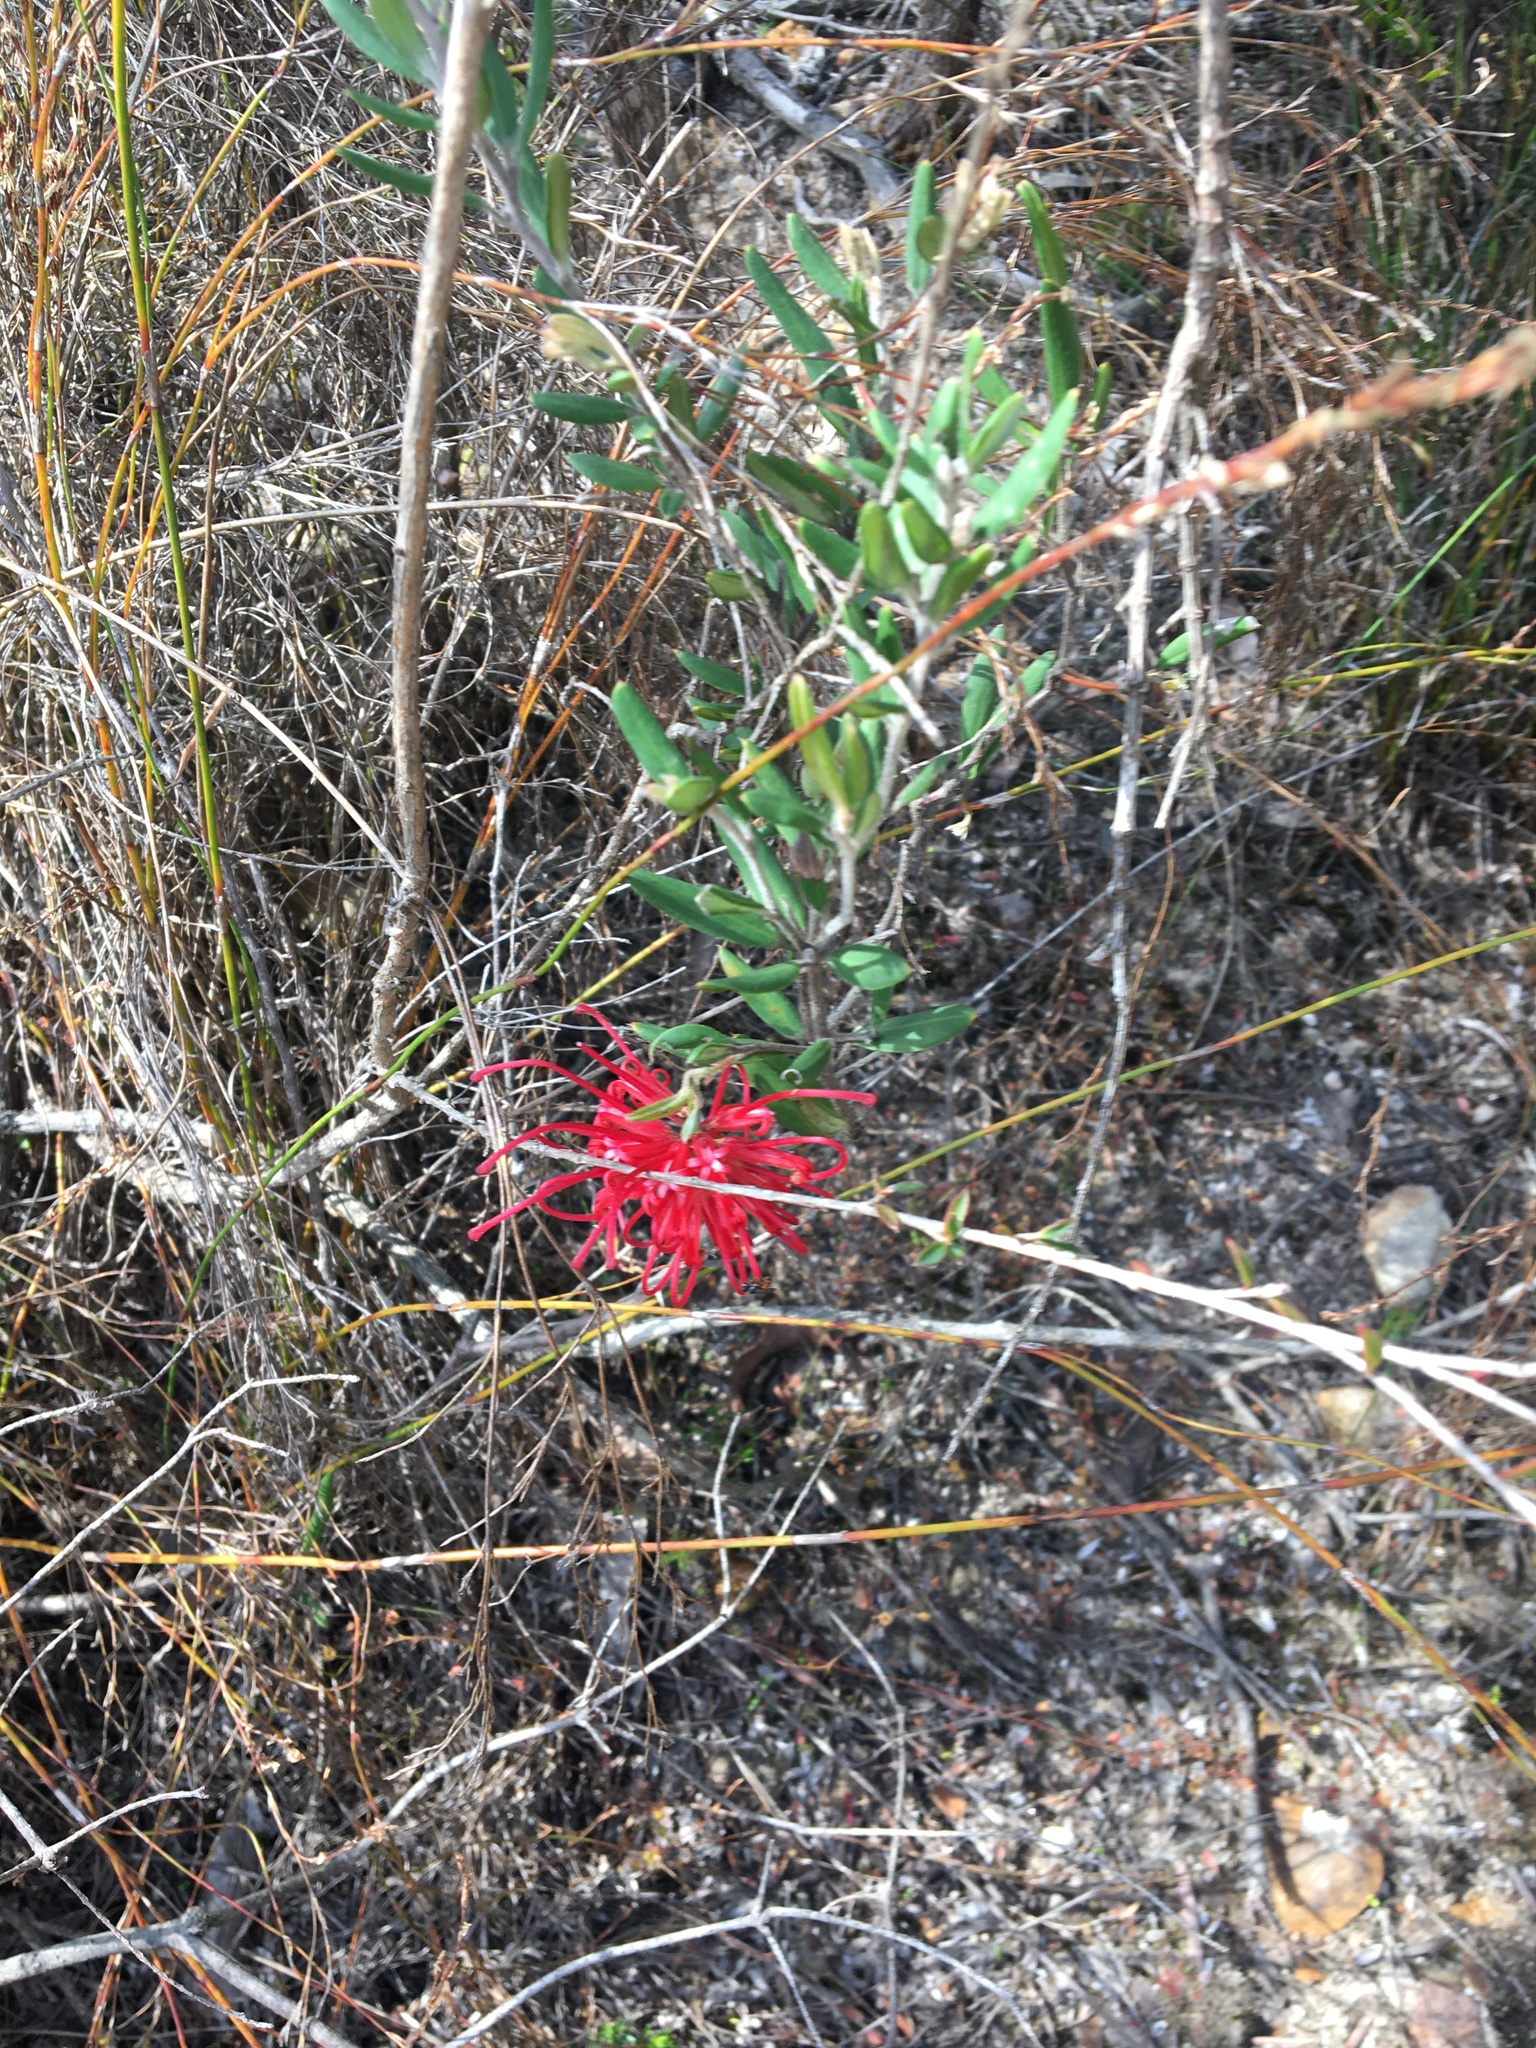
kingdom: Plantae
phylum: Tracheophyta
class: Magnoliopsida
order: Proteales
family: Proteaceae
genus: Grevillea
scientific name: Grevillea speciosa
